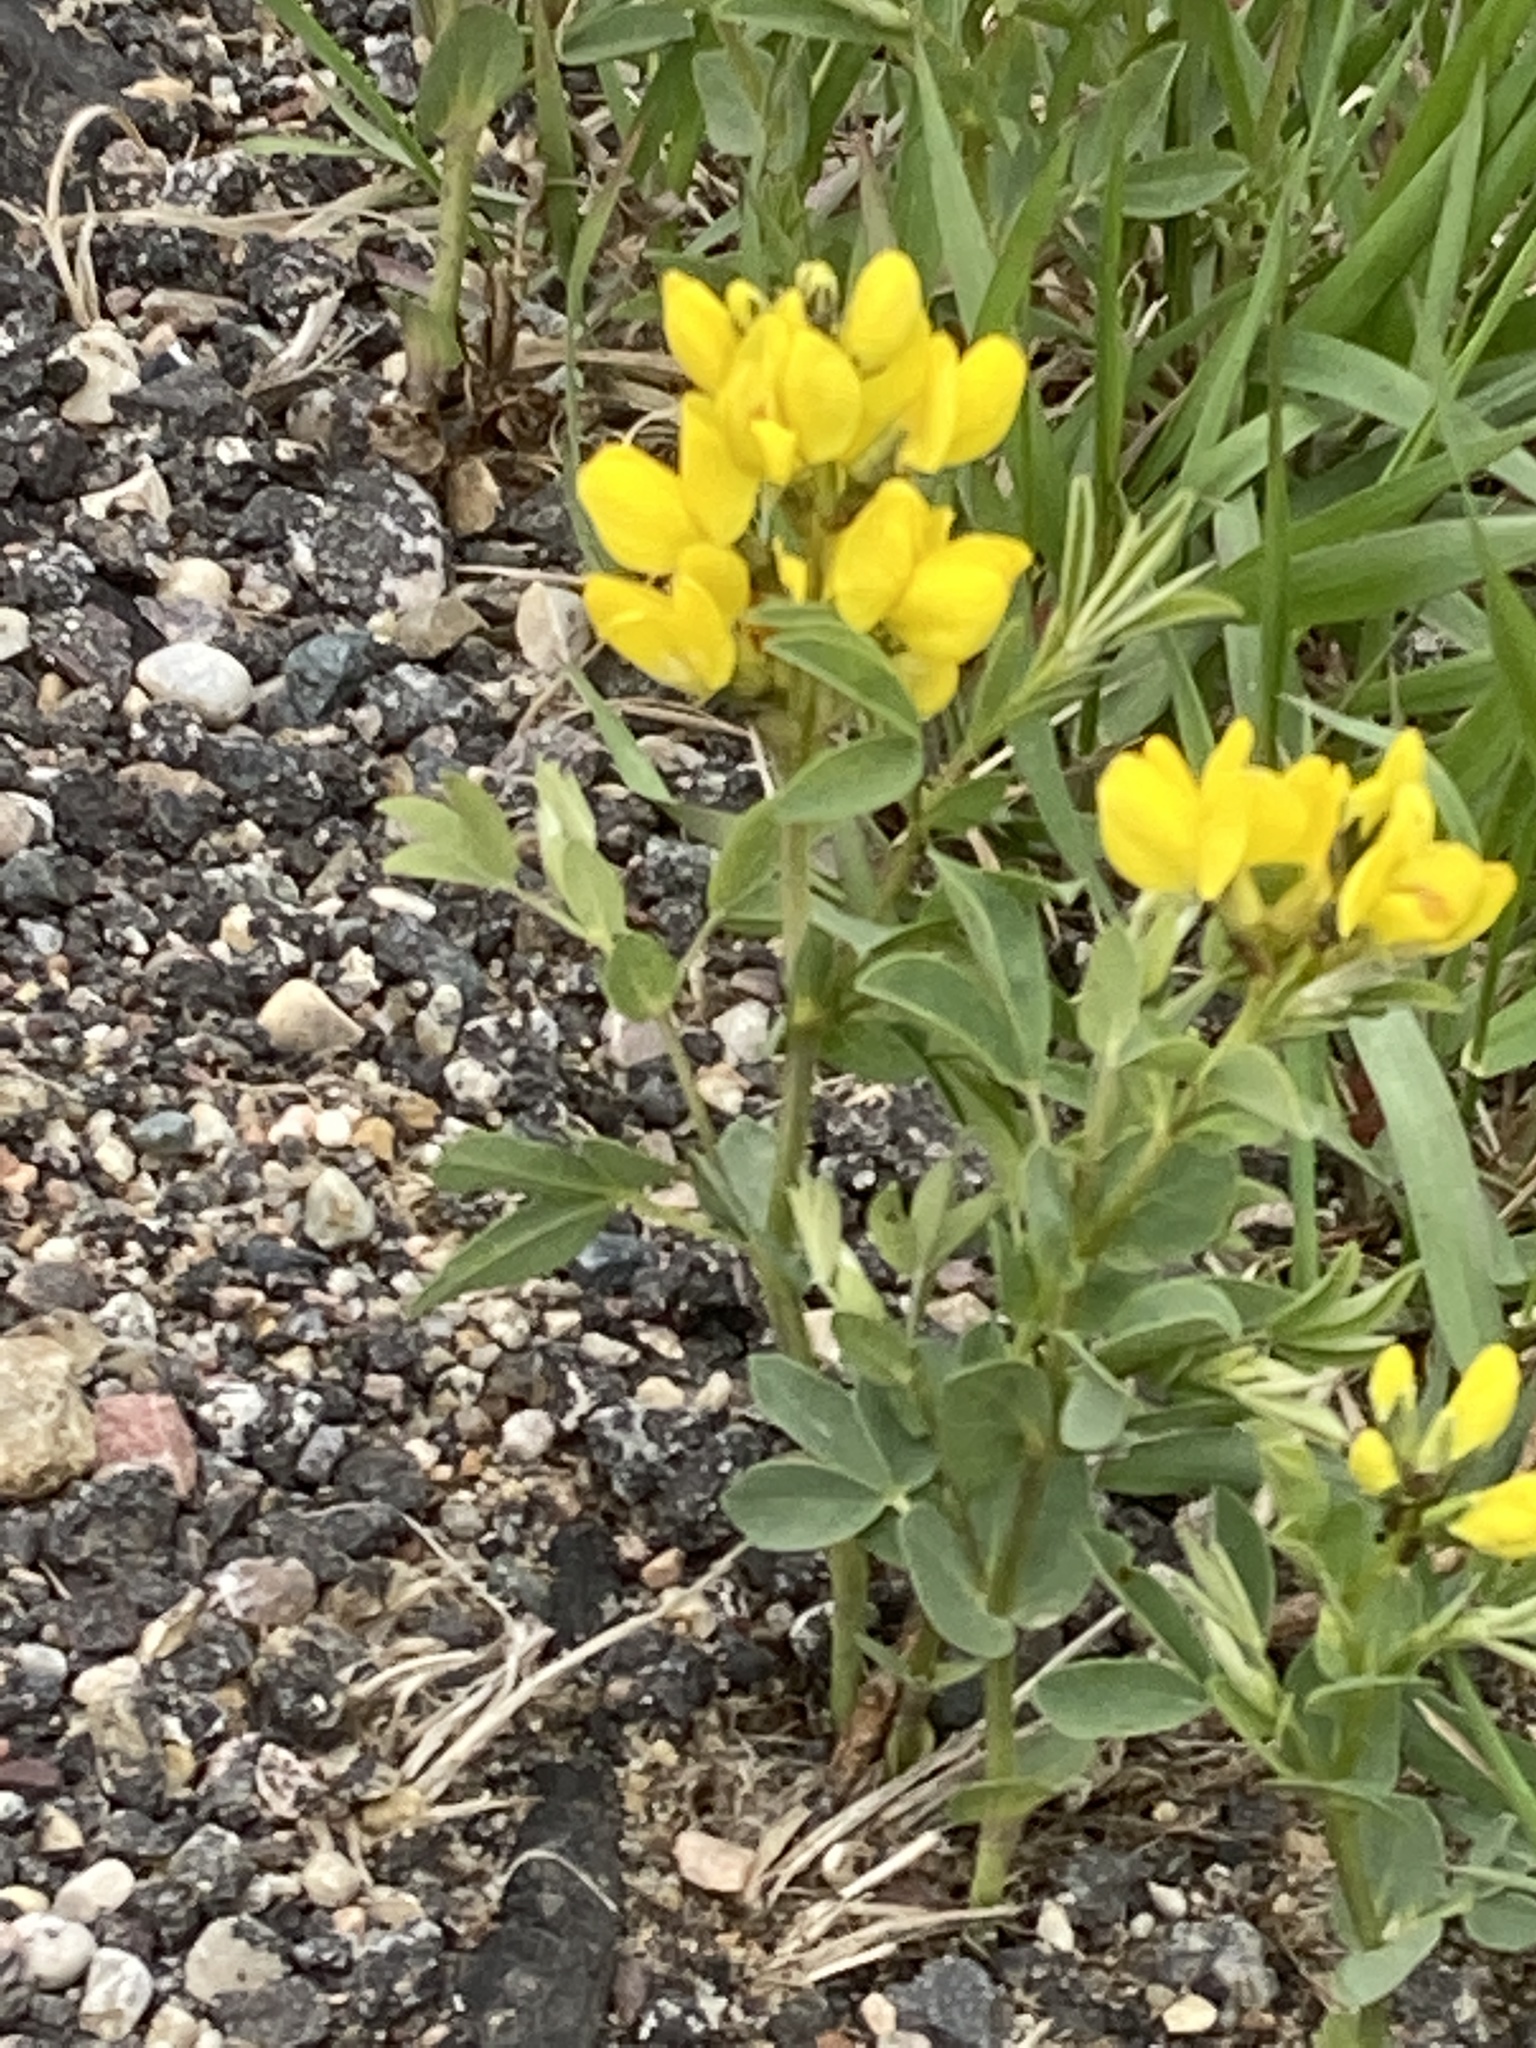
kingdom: Plantae
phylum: Tracheophyta
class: Magnoliopsida
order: Fabales
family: Fabaceae
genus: Thermopsis
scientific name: Thermopsis rhombifolia
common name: Circle-pod-pea
